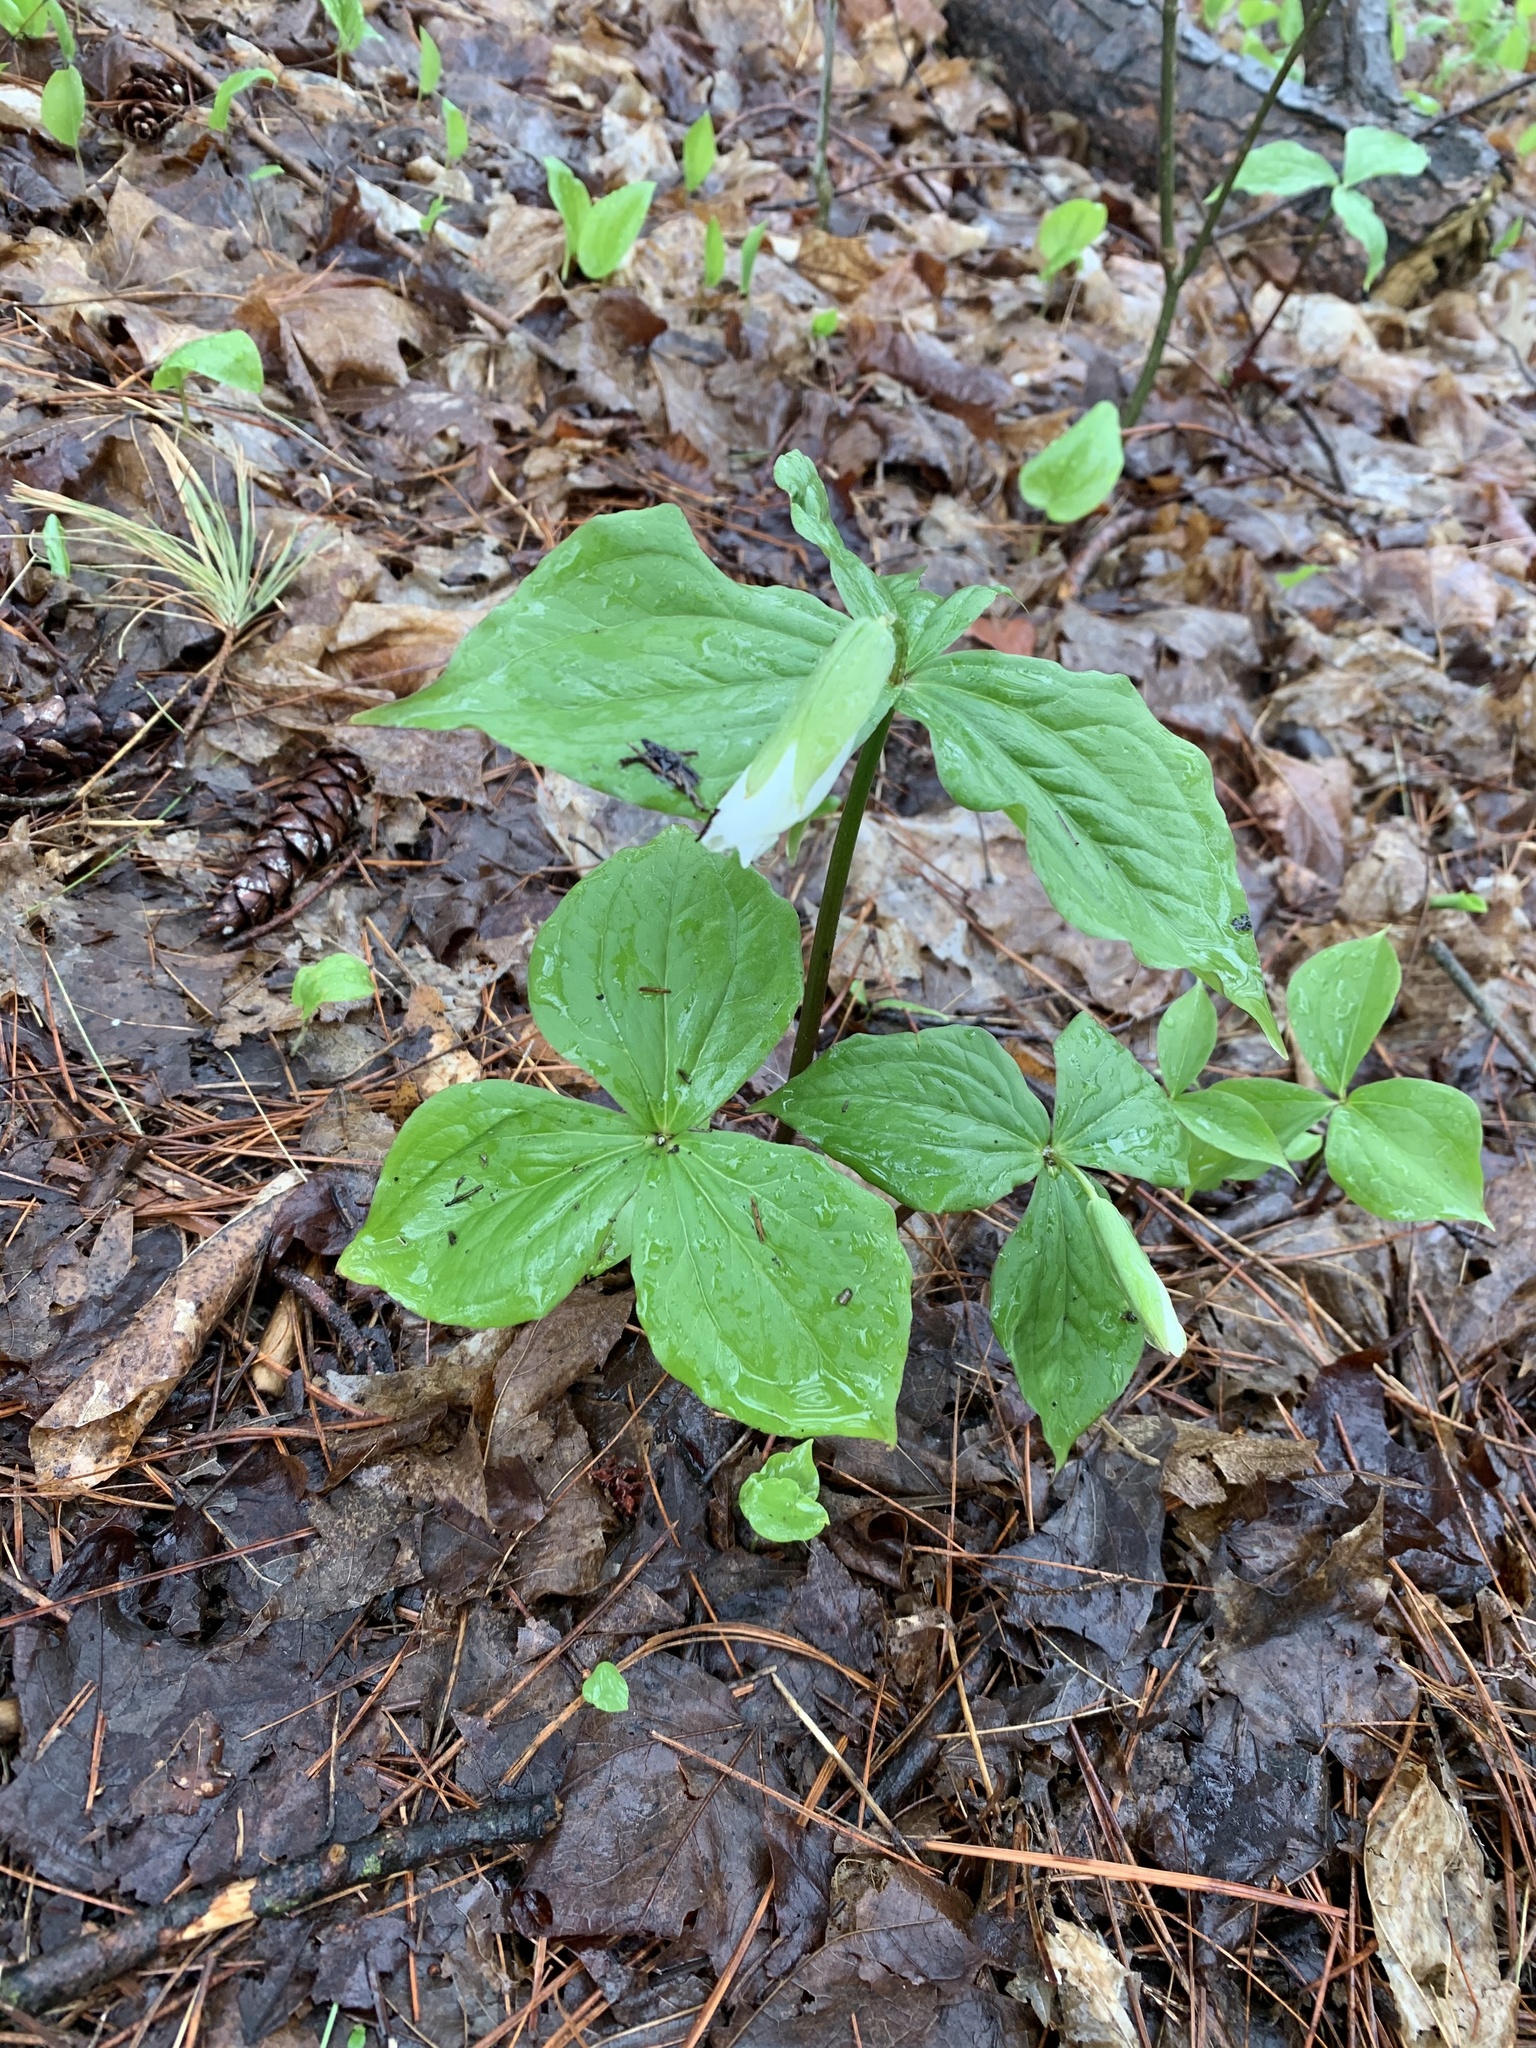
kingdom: Plantae
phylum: Tracheophyta
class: Liliopsida
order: Liliales
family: Melanthiaceae
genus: Trillium
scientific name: Trillium grandiflorum
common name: Great white trillium
